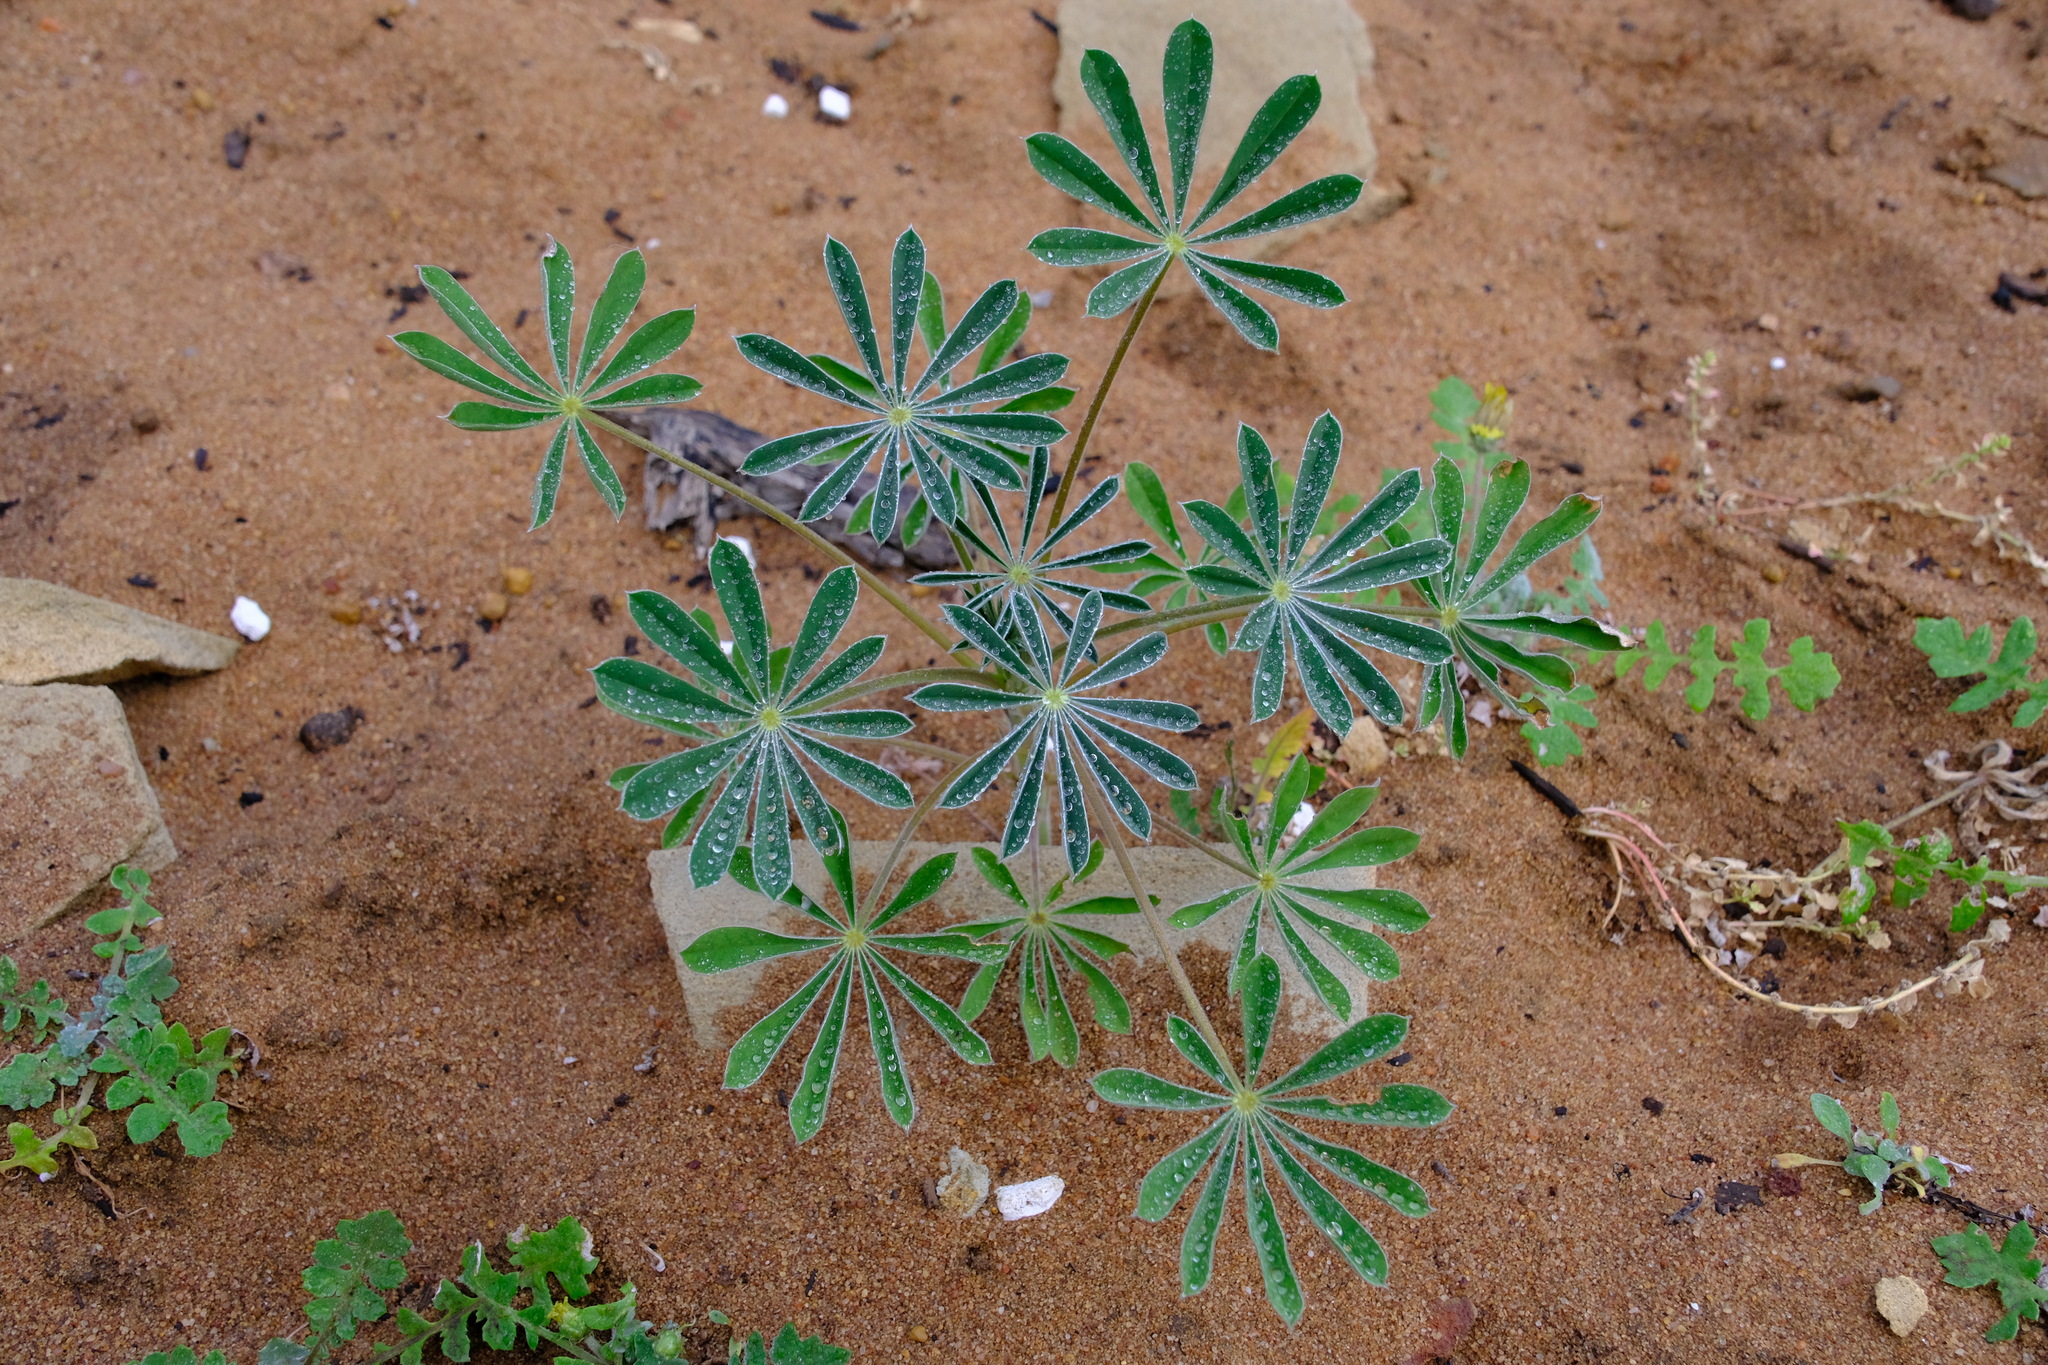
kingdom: Plantae
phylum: Tracheophyta
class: Magnoliopsida
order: Fabales
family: Fabaceae
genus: Lupinus
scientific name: Lupinus cosentinii
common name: Hairy blue lupin
